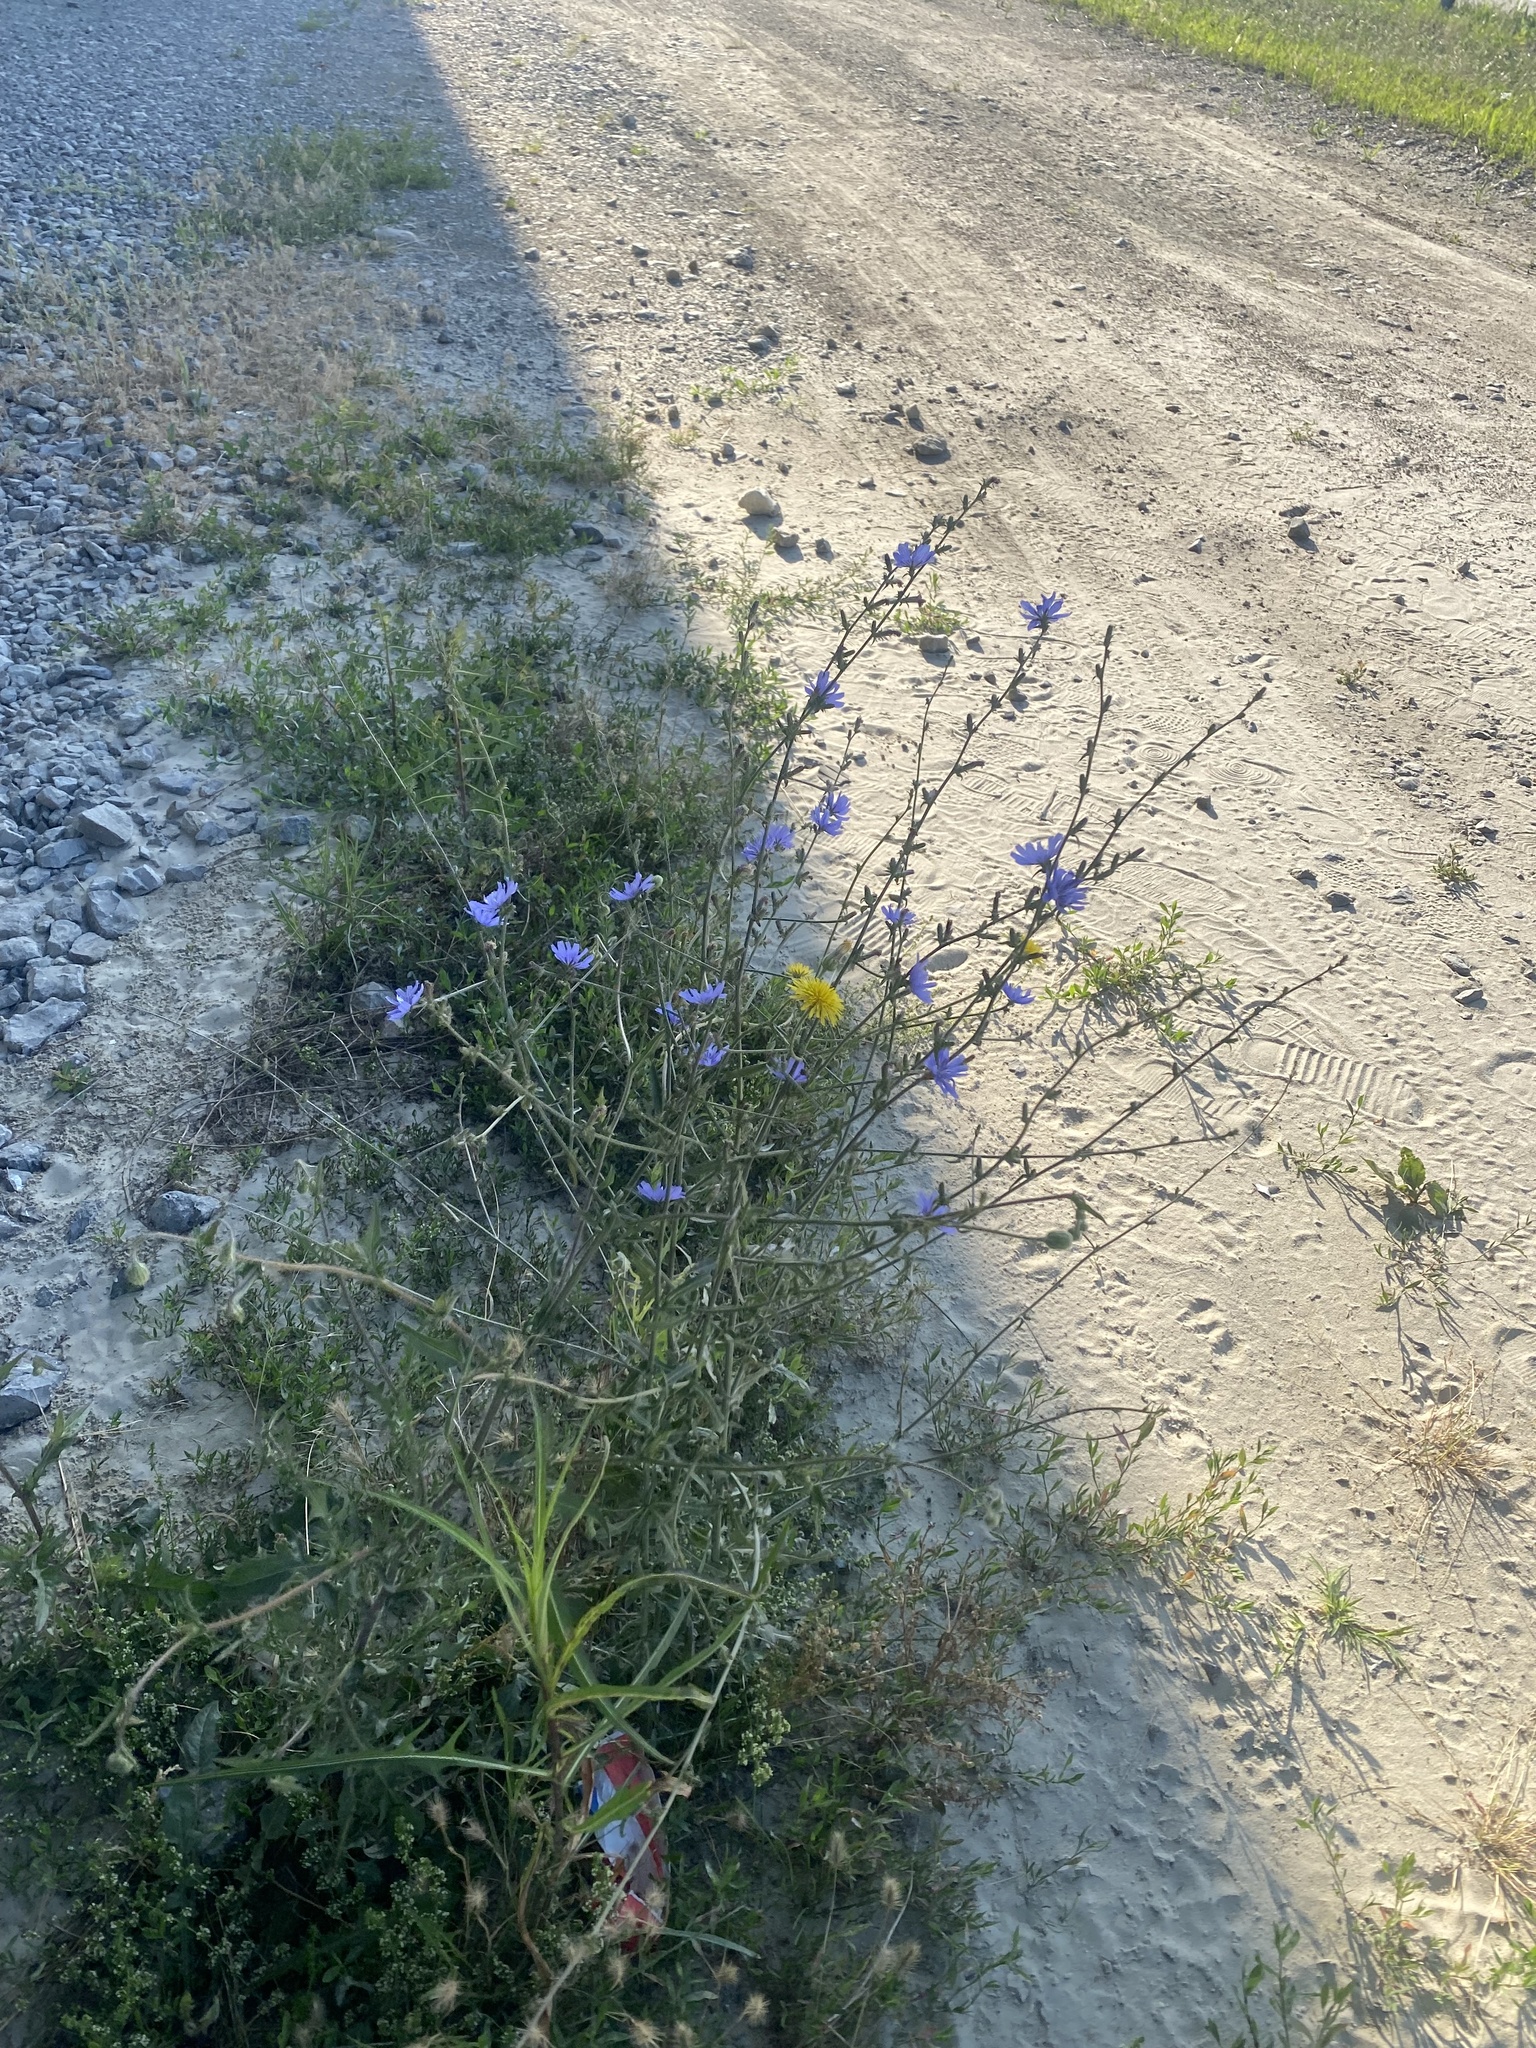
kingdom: Plantae
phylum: Tracheophyta
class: Magnoliopsida
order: Asterales
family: Asteraceae
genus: Cichorium
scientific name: Cichorium intybus
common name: Chicory
